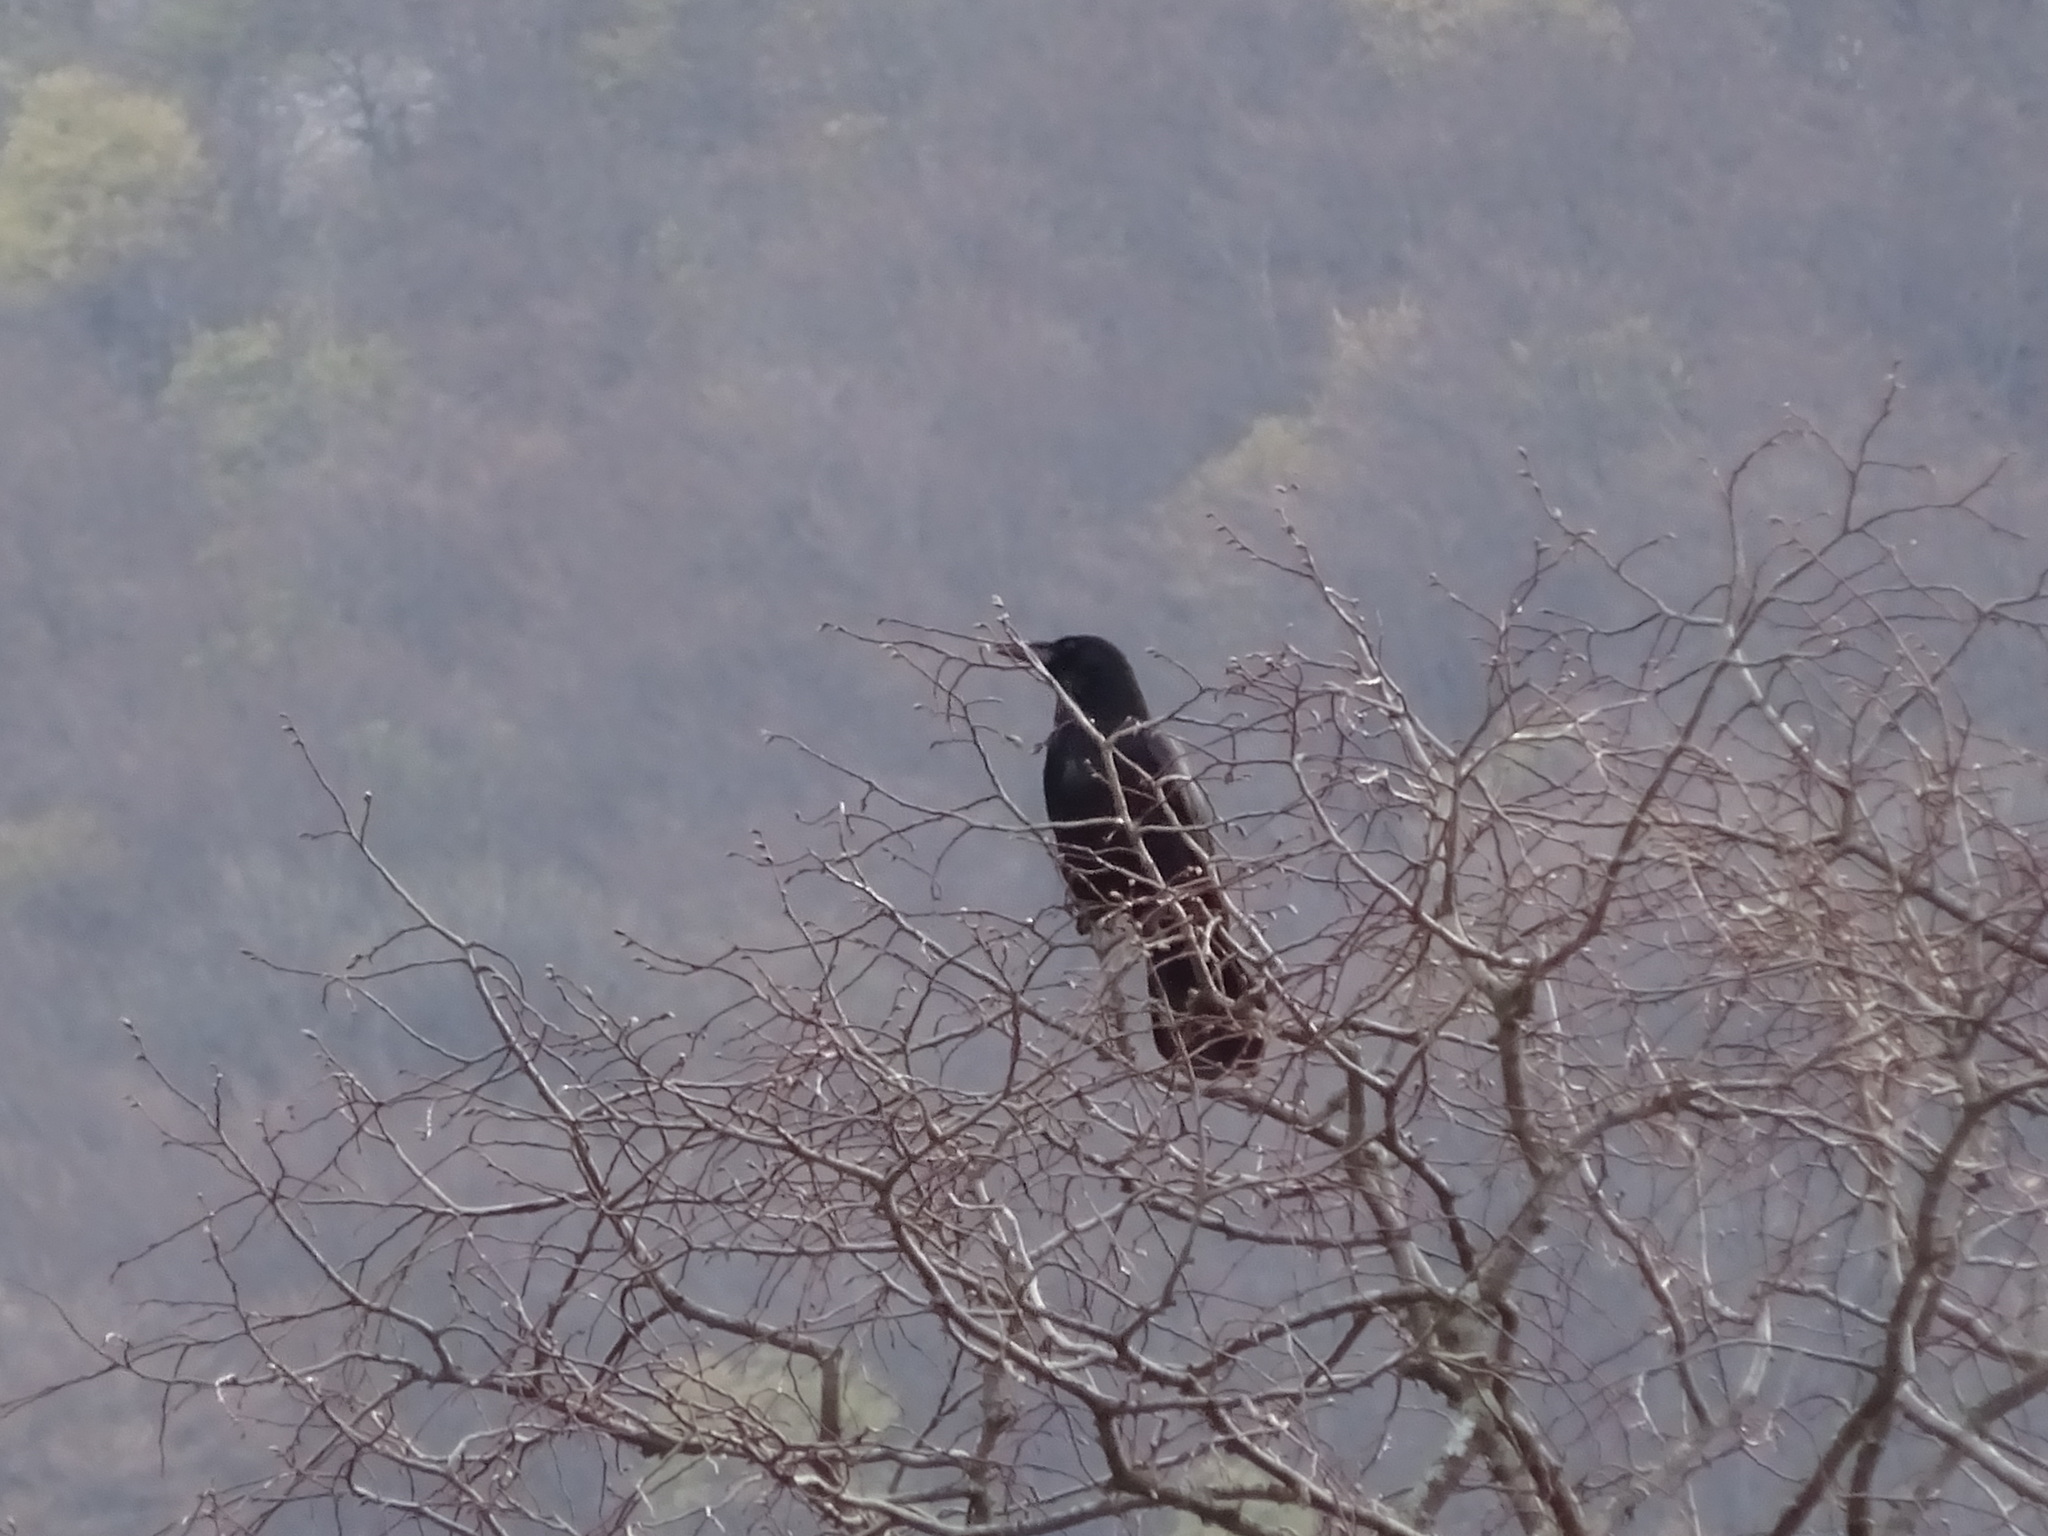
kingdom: Animalia
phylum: Chordata
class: Aves
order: Passeriformes
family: Corvidae
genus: Corvus
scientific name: Corvus corone
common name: Carrion crow
